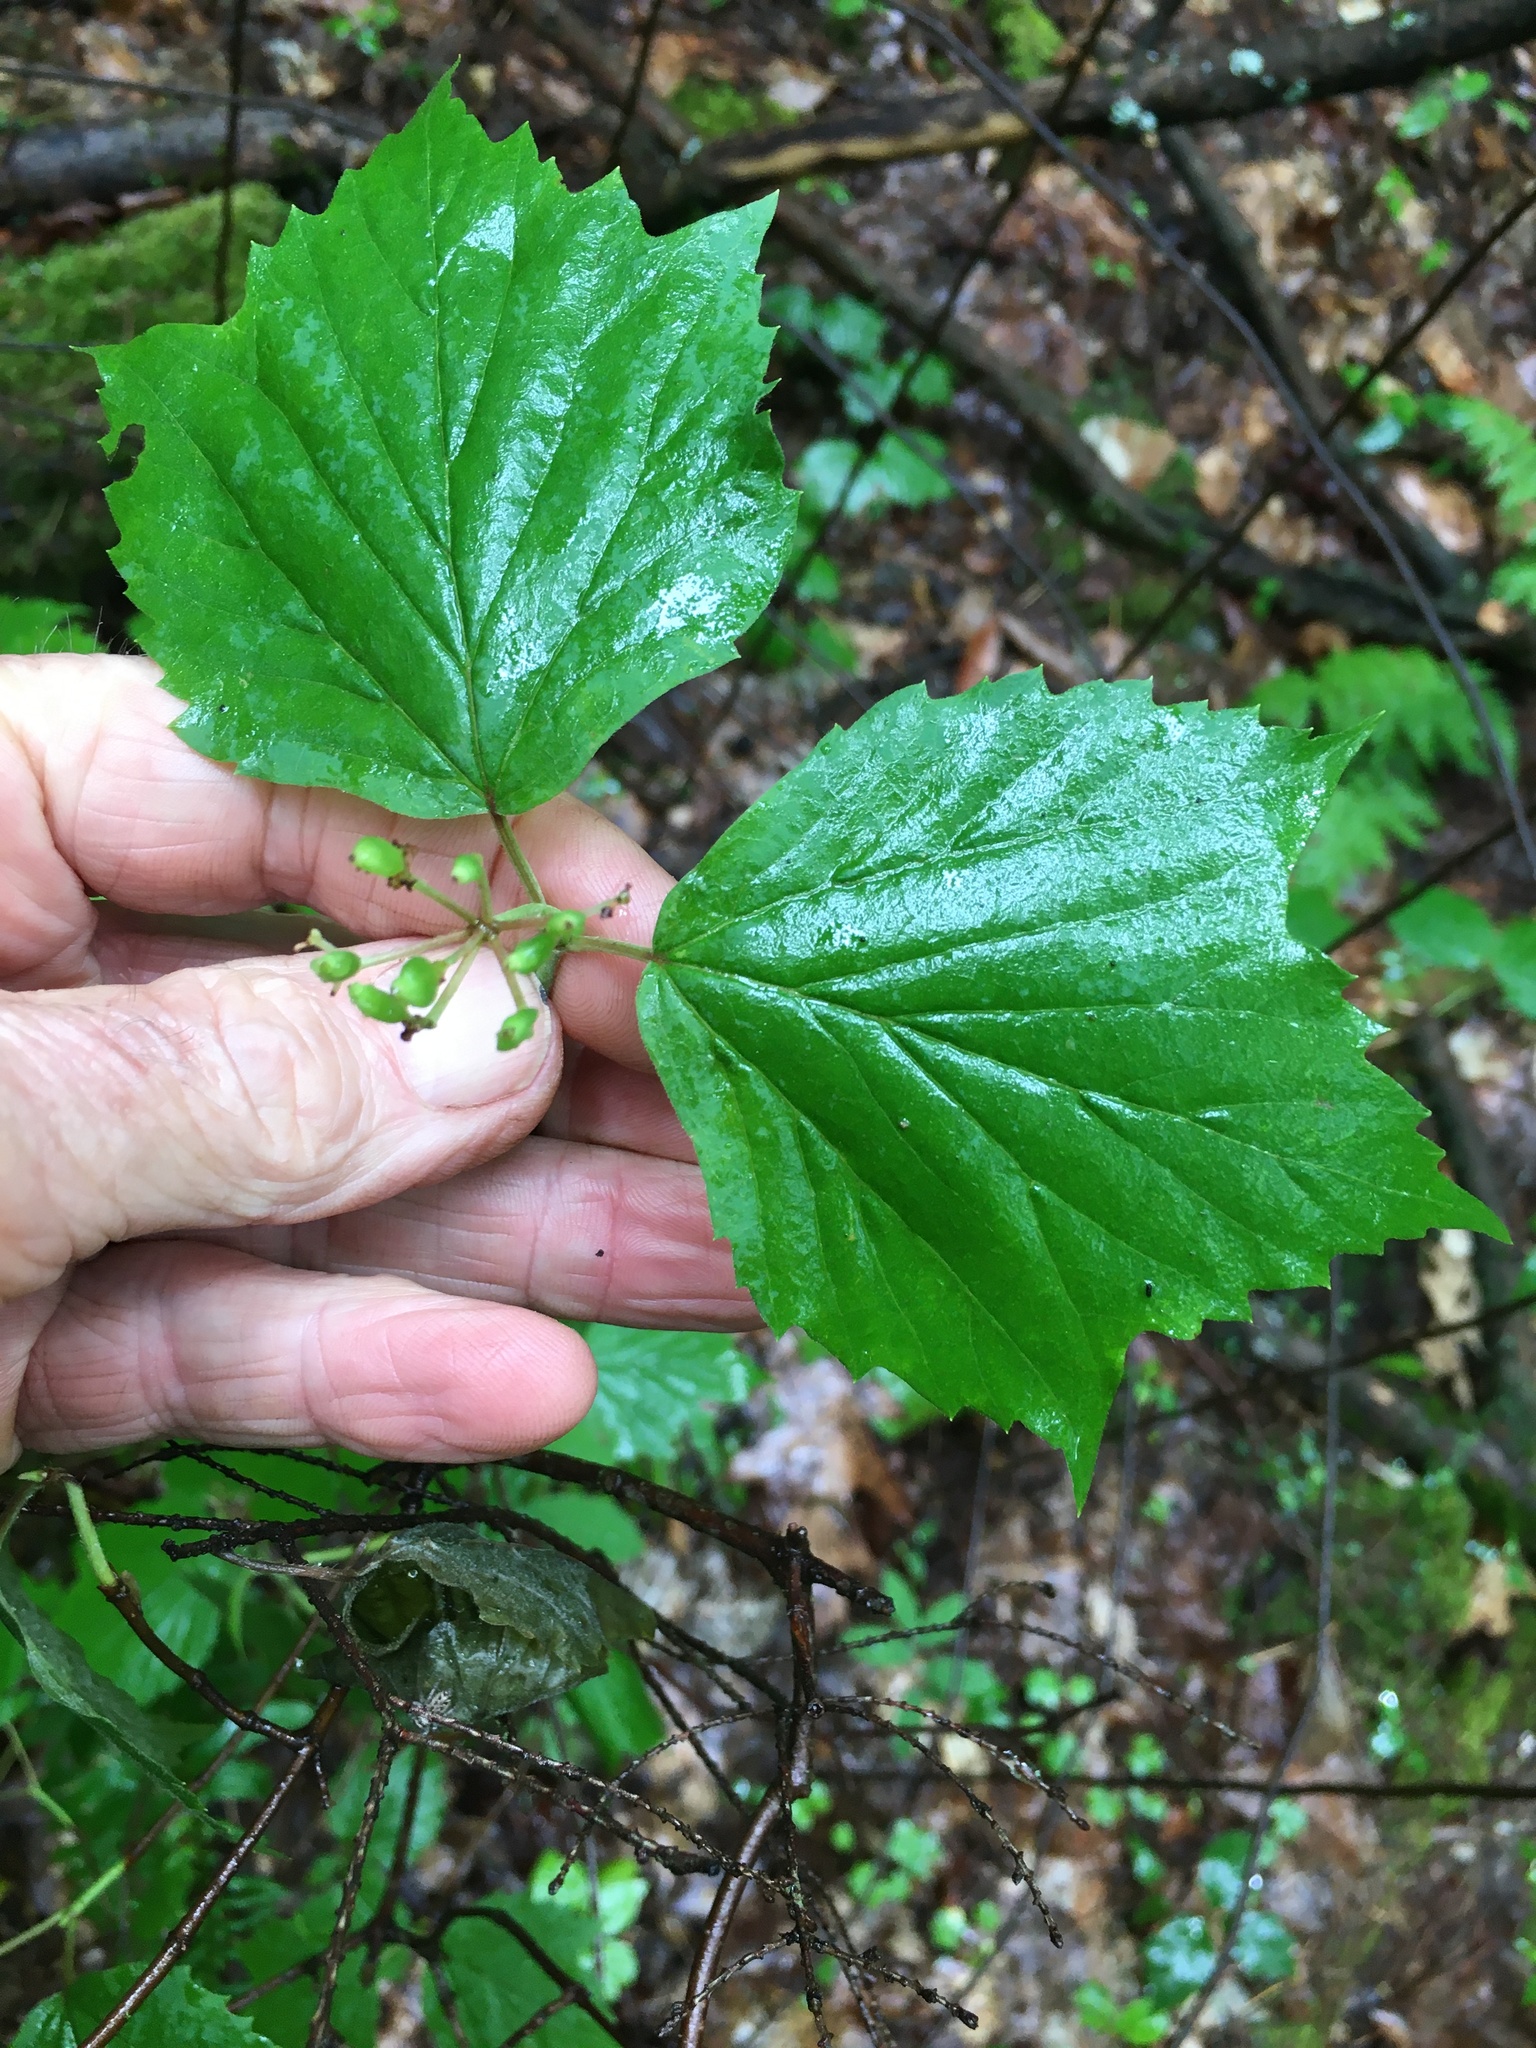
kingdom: Plantae
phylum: Tracheophyta
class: Magnoliopsida
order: Dipsacales
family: Viburnaceae
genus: Viburnum
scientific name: Viburnum acerifolium
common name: Dockmackie
